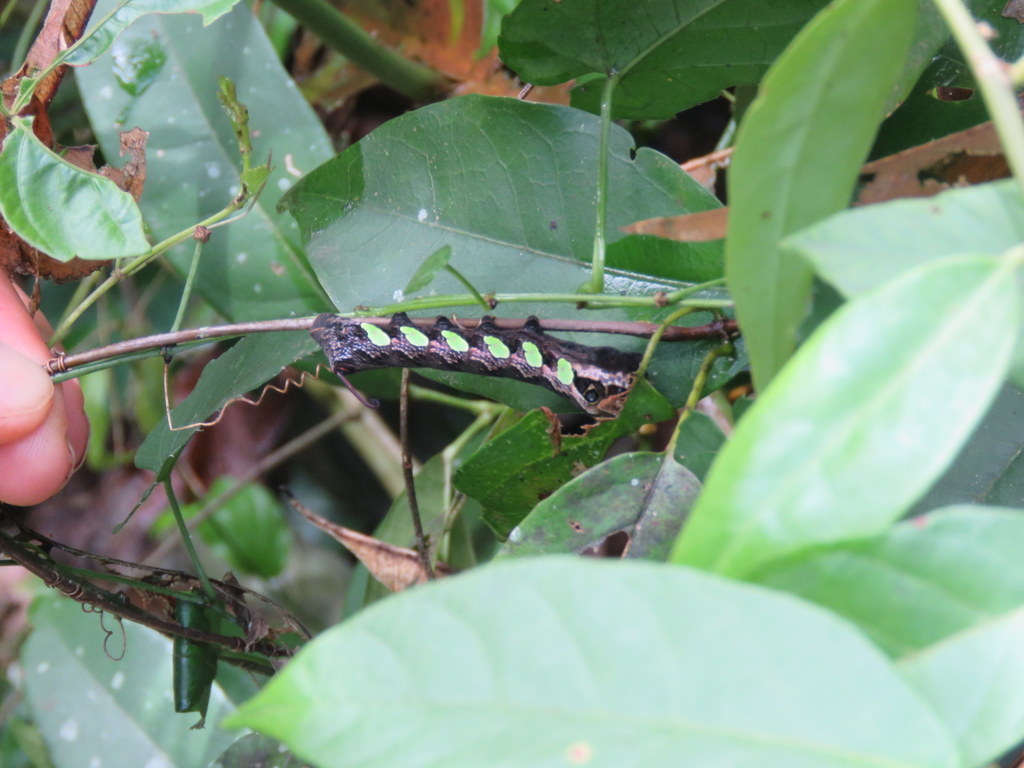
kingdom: Animalia
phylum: Arthropoda
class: Insecta
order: Lepidoptera
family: Sphingidae
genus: Eumorpha
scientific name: Eumorpha labruscae
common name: Gaudy sphinx
